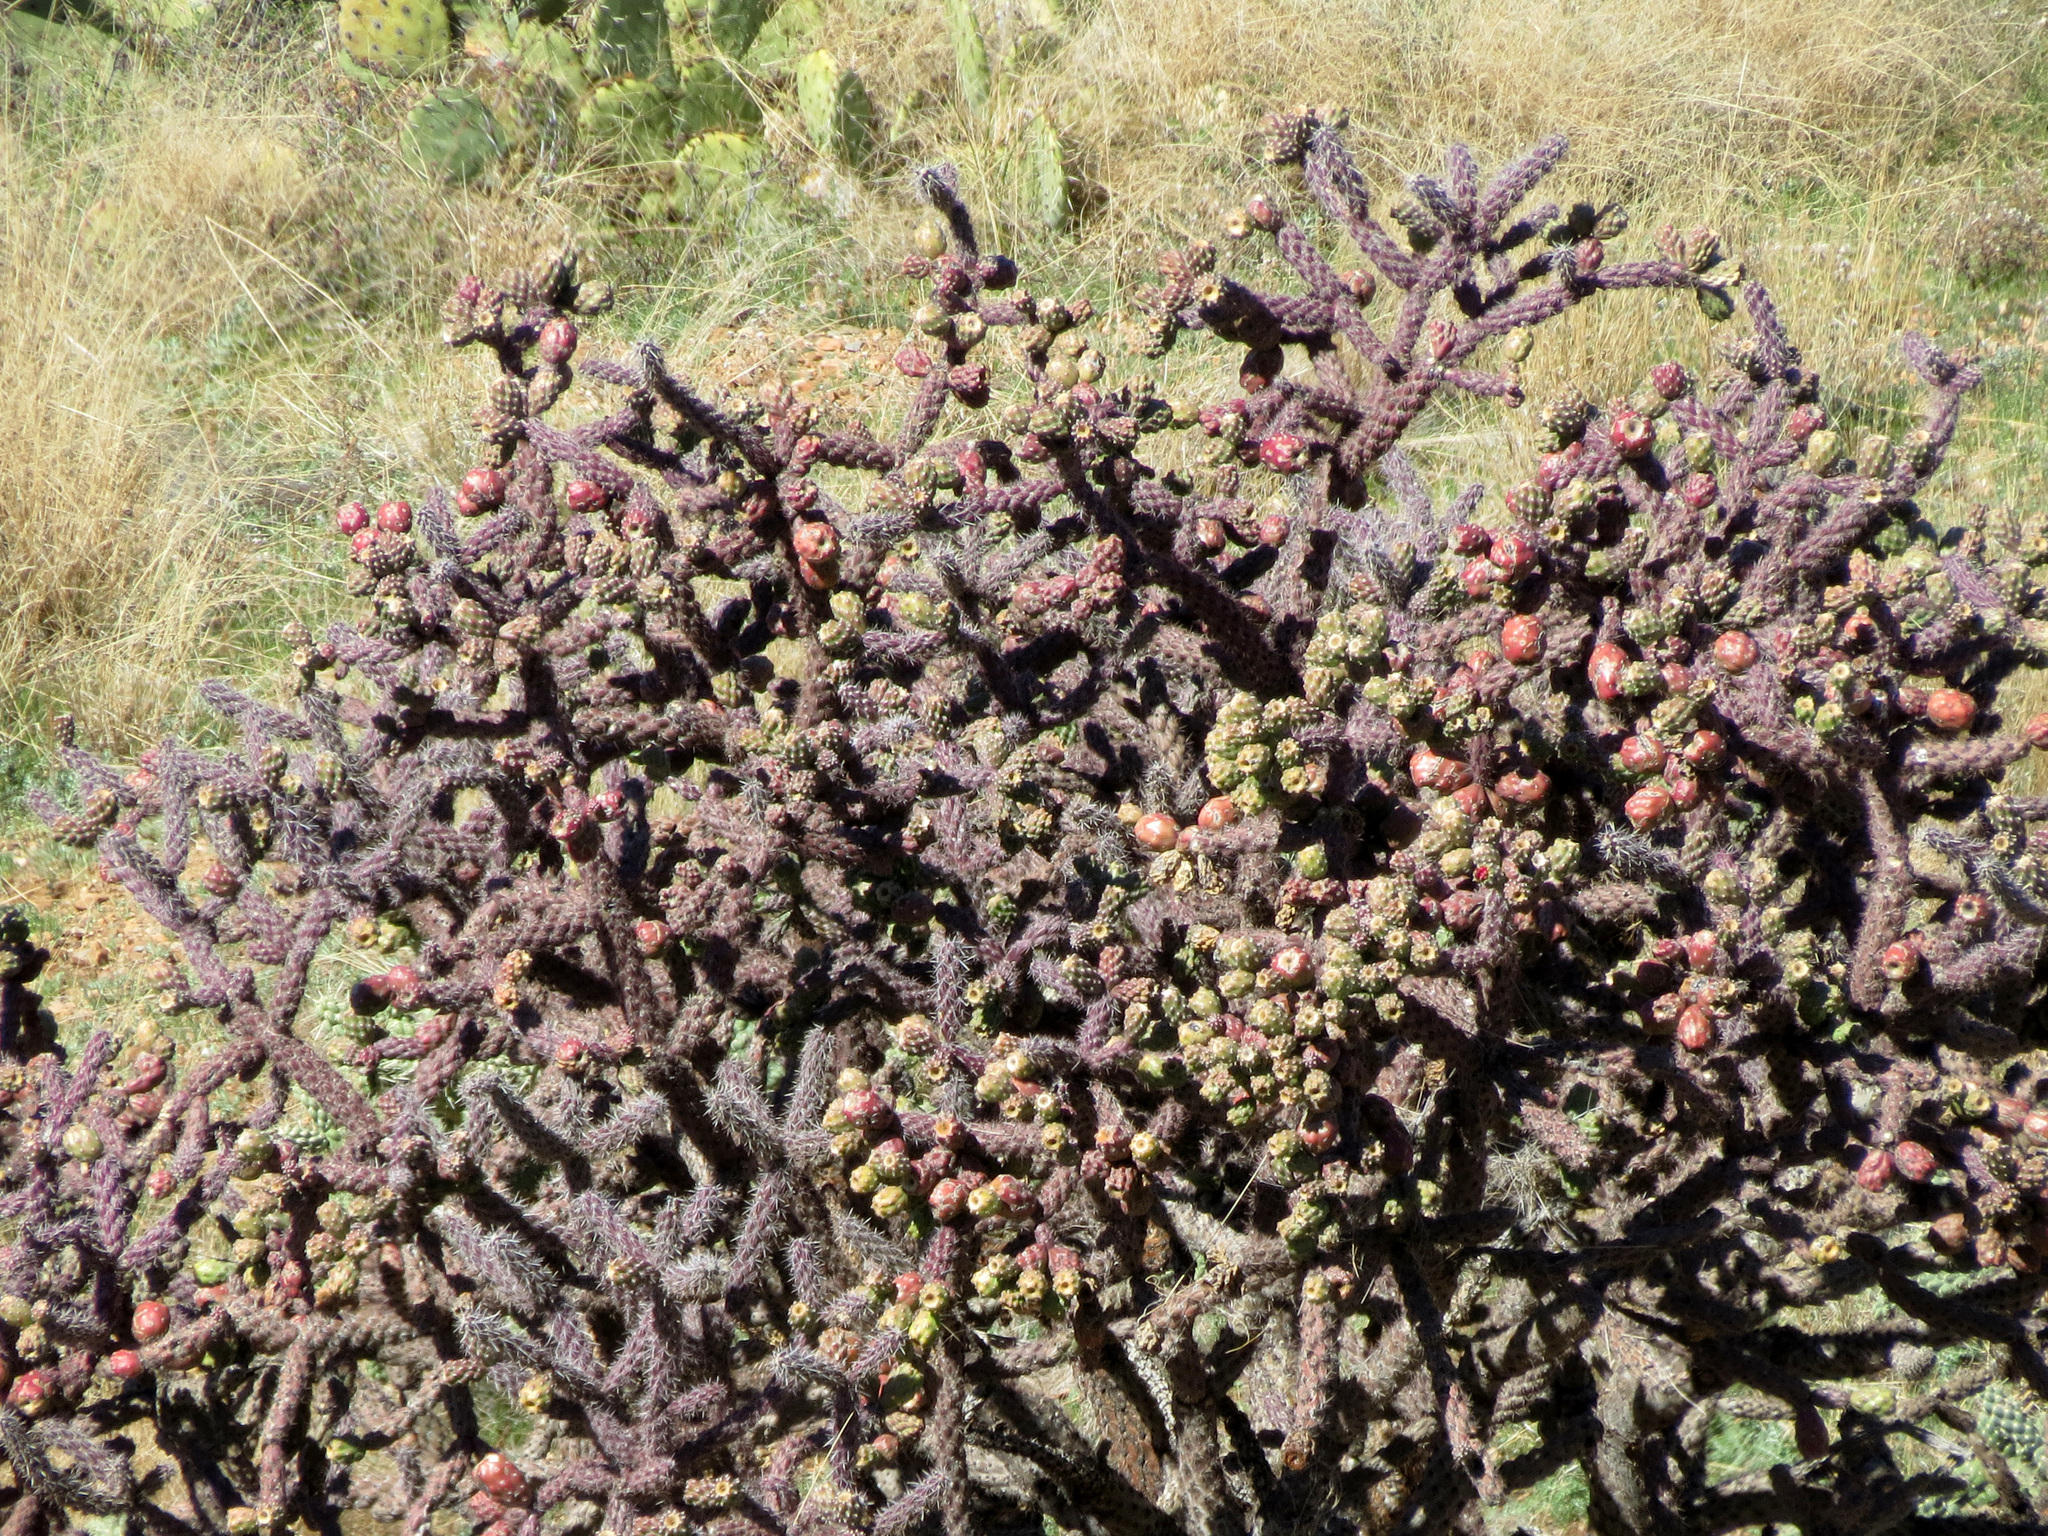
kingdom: Plantae
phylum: Tracheophyta
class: Magnoliopsida
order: Caryophyllales
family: Cactaceae
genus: Cylindropuntia
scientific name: Cylindropuntia thurberi
